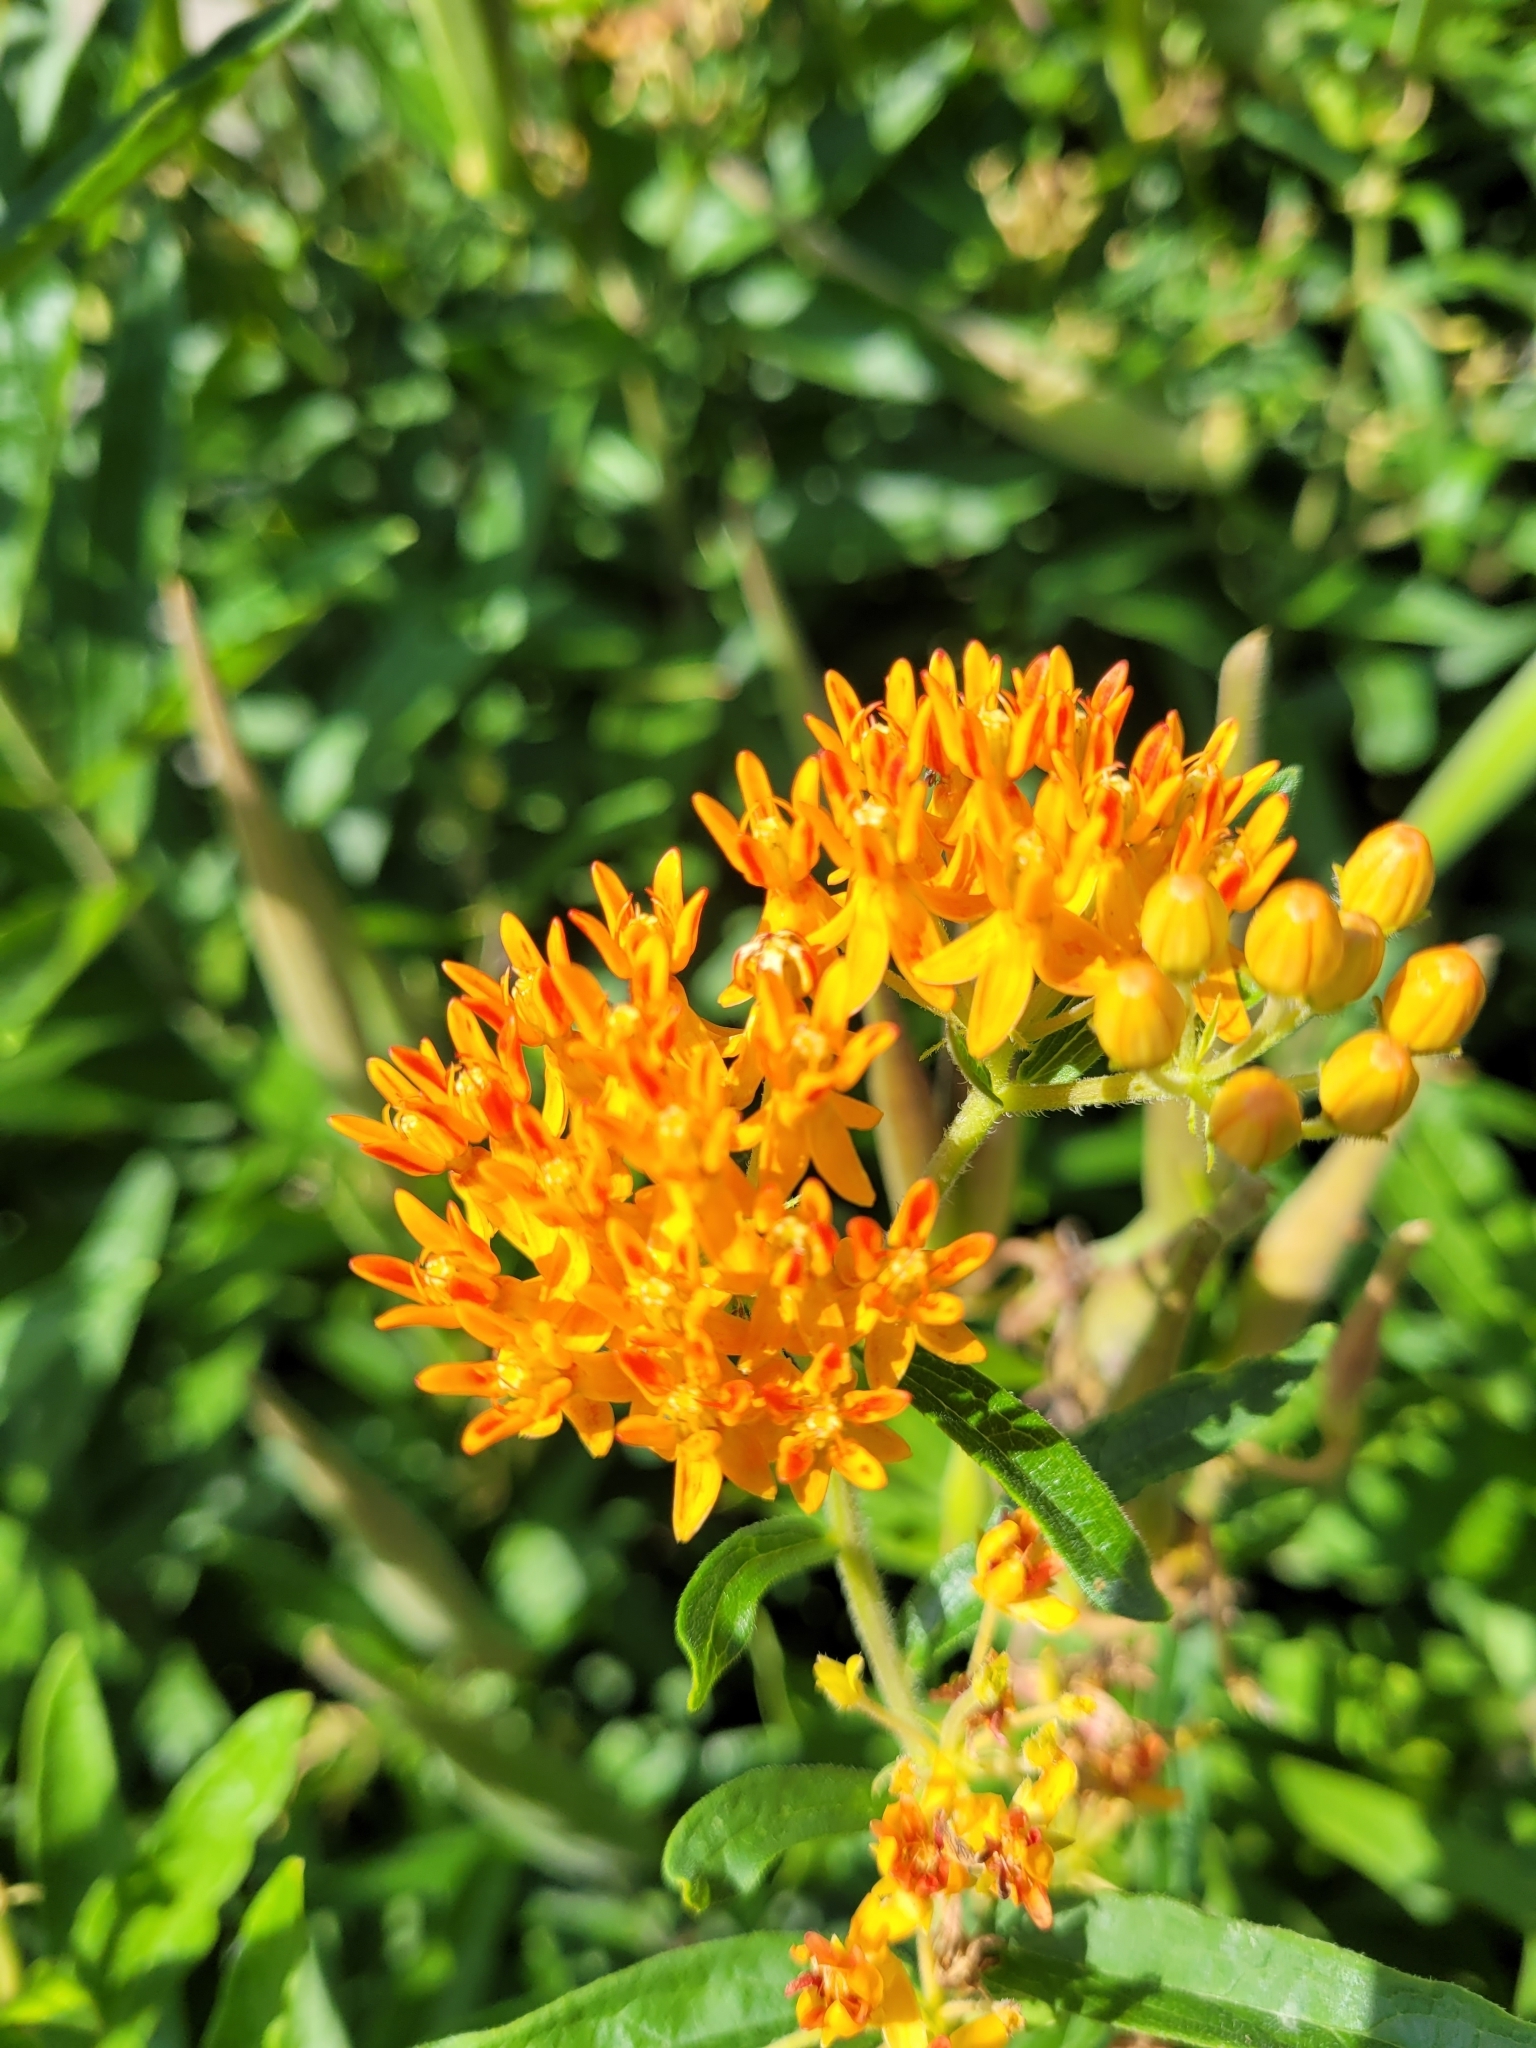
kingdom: Plantae
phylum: Tracheophyta
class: Magnoliopsida
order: Gentianales
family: Apocynaceae
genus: Asclepias
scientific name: Asclepias tuberosa
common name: Butterfly milkweed
